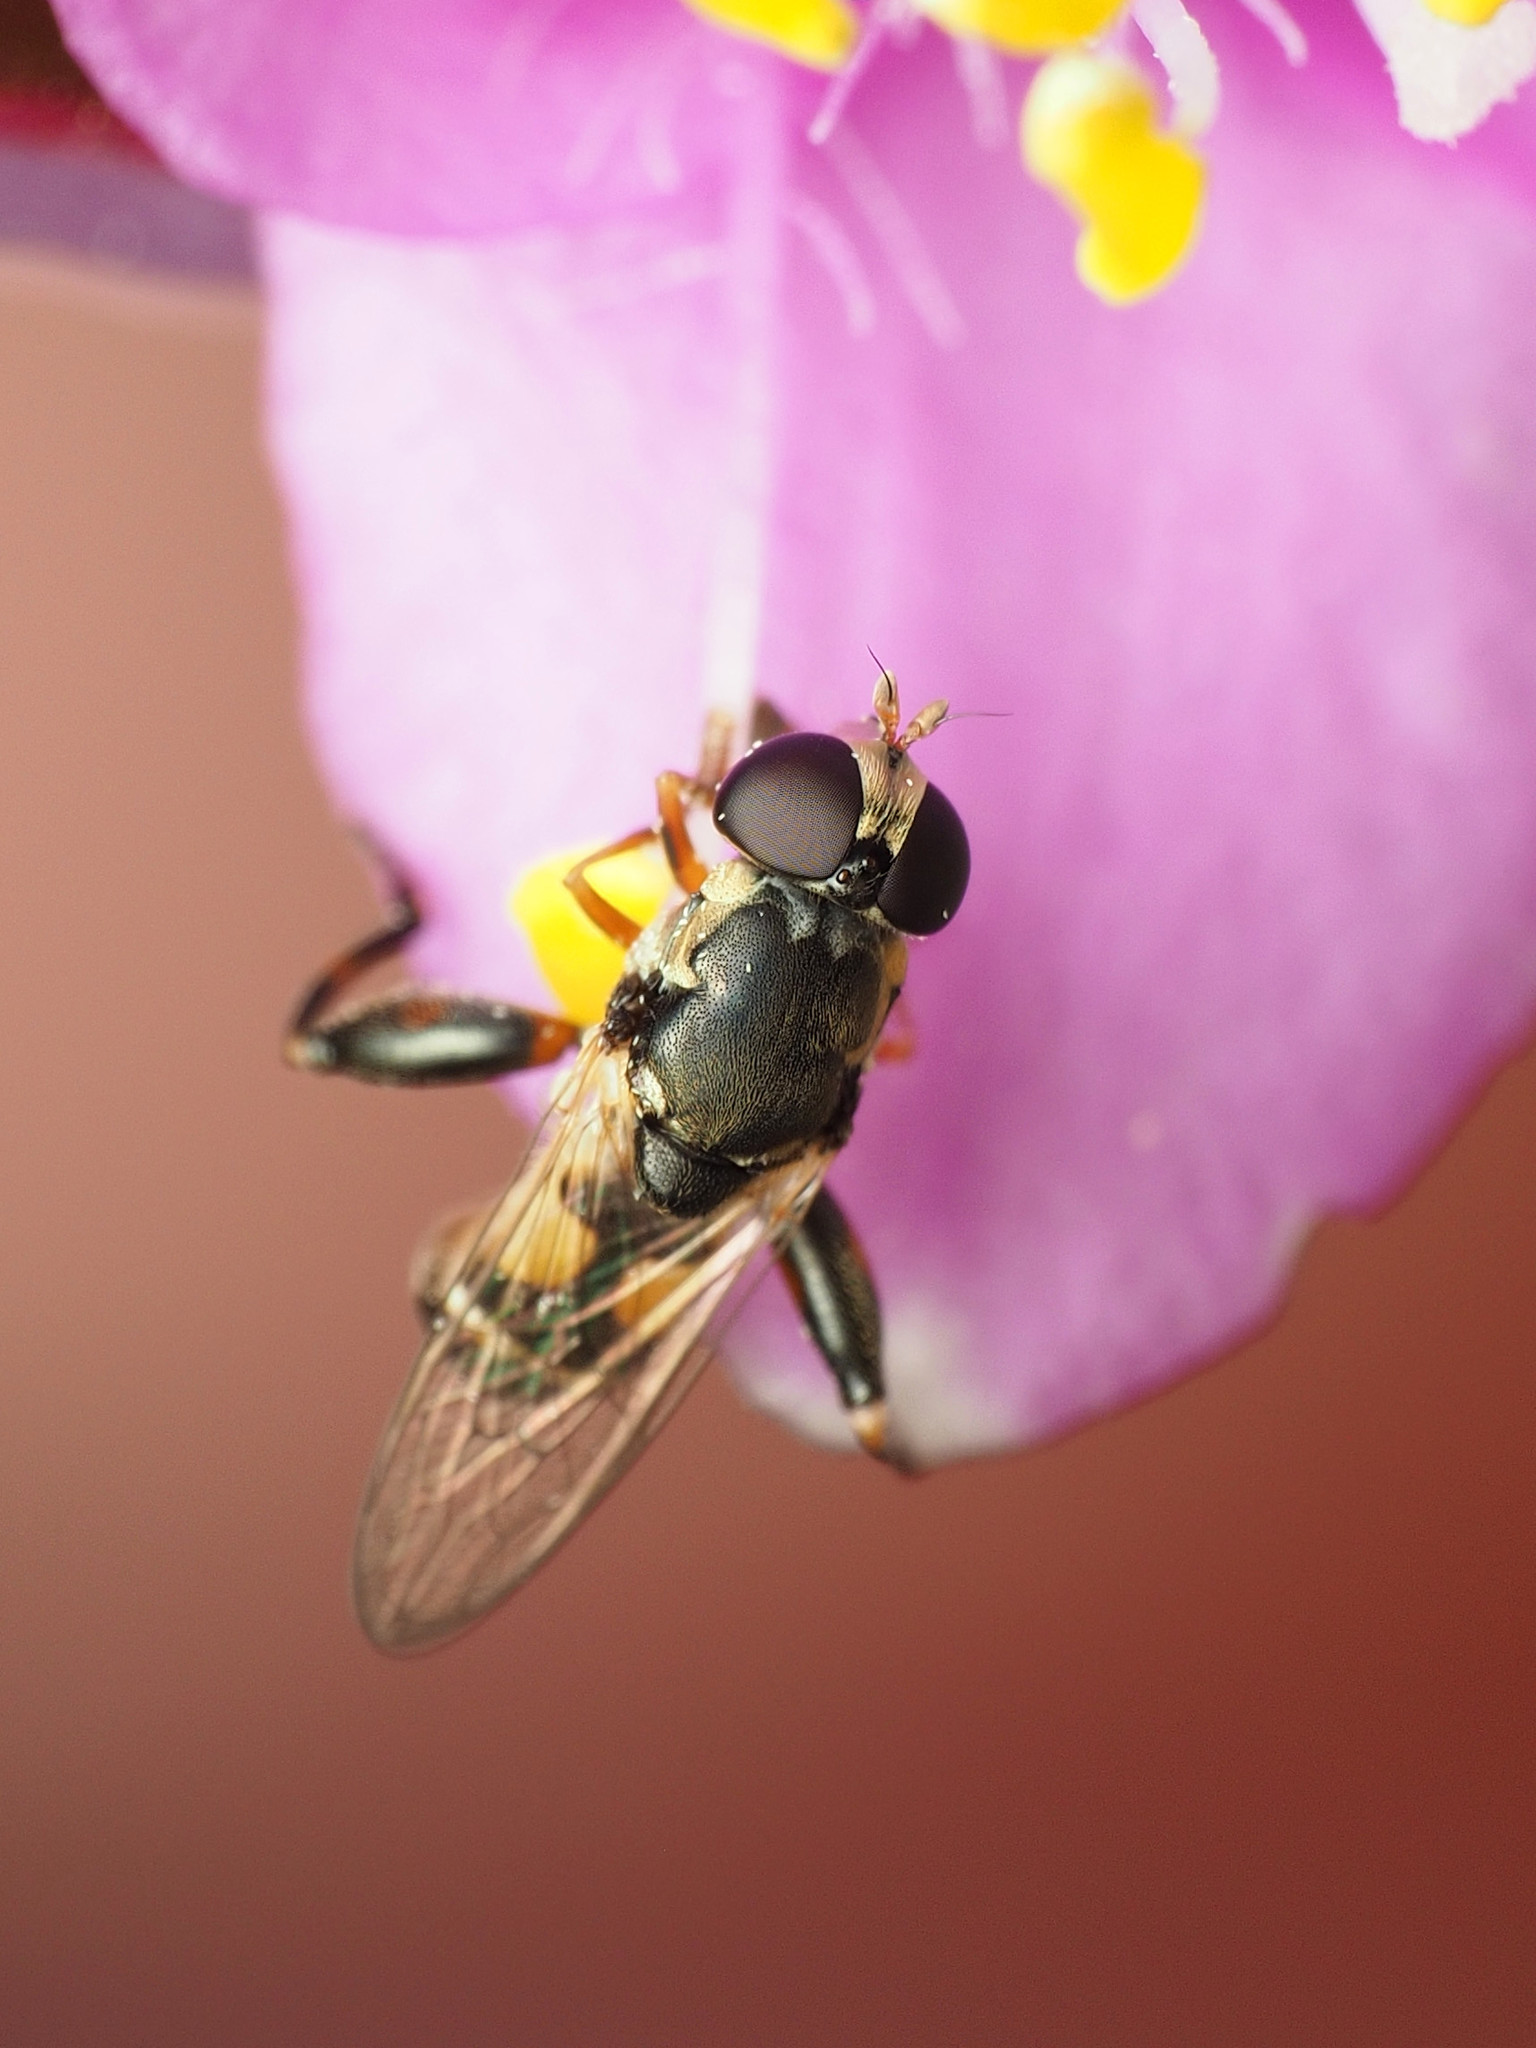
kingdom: Animalia
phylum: Arthropoda
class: Insecta
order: Diptera
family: Syrphidae
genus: Syritta
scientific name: Syritta pipiens
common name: Hover fly
